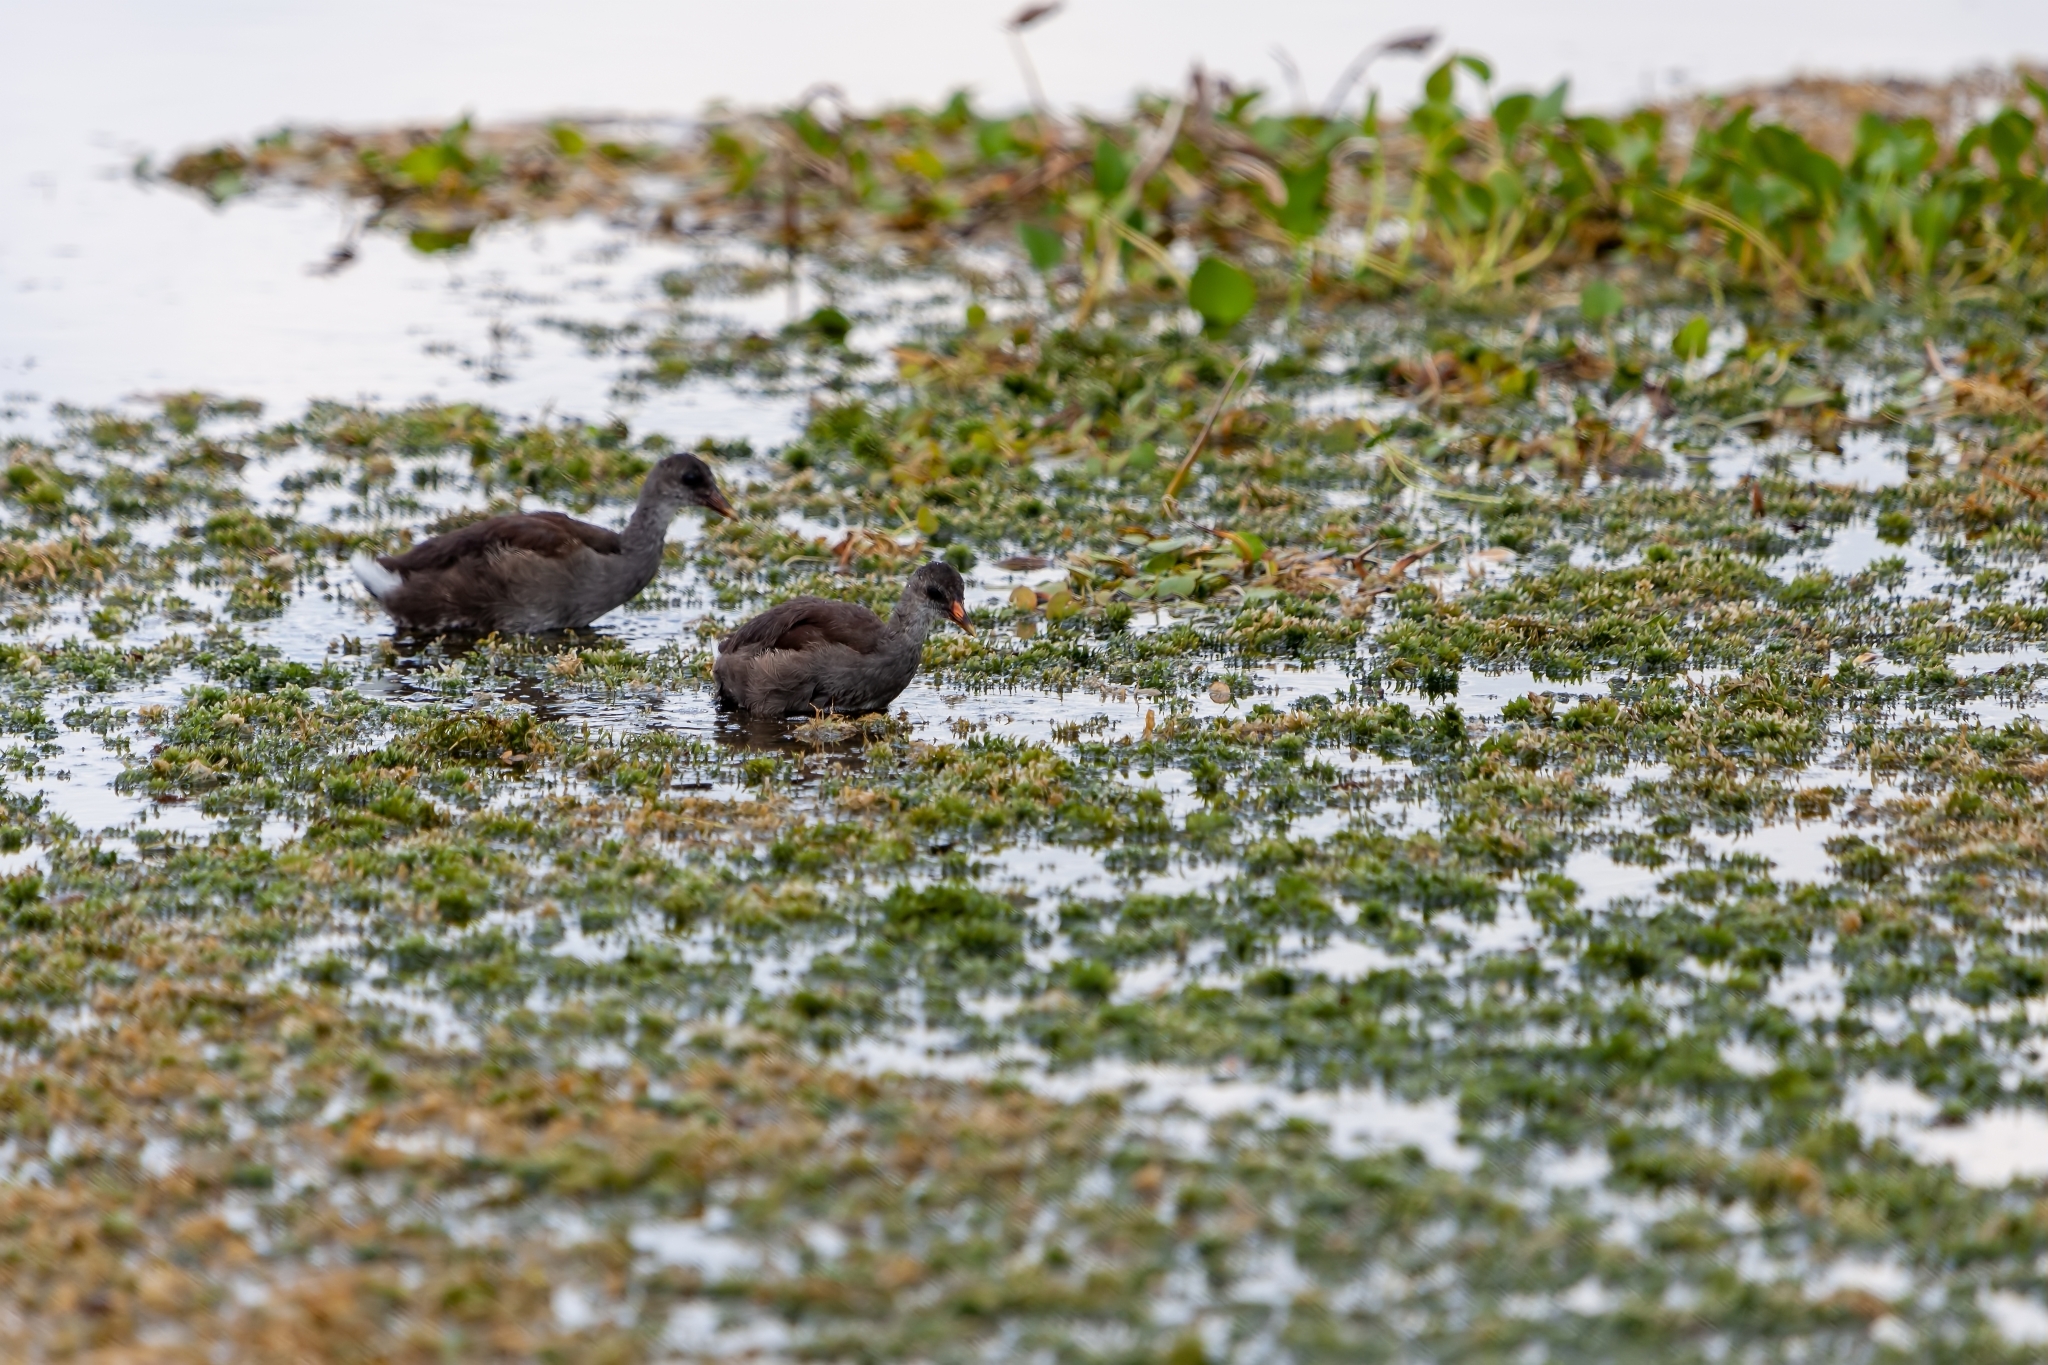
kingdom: Animalia
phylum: Chordata
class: Aves
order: Gruiformes
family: Rallidae
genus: Gallinula
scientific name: Gallinula chloropus
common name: Common moorhen
